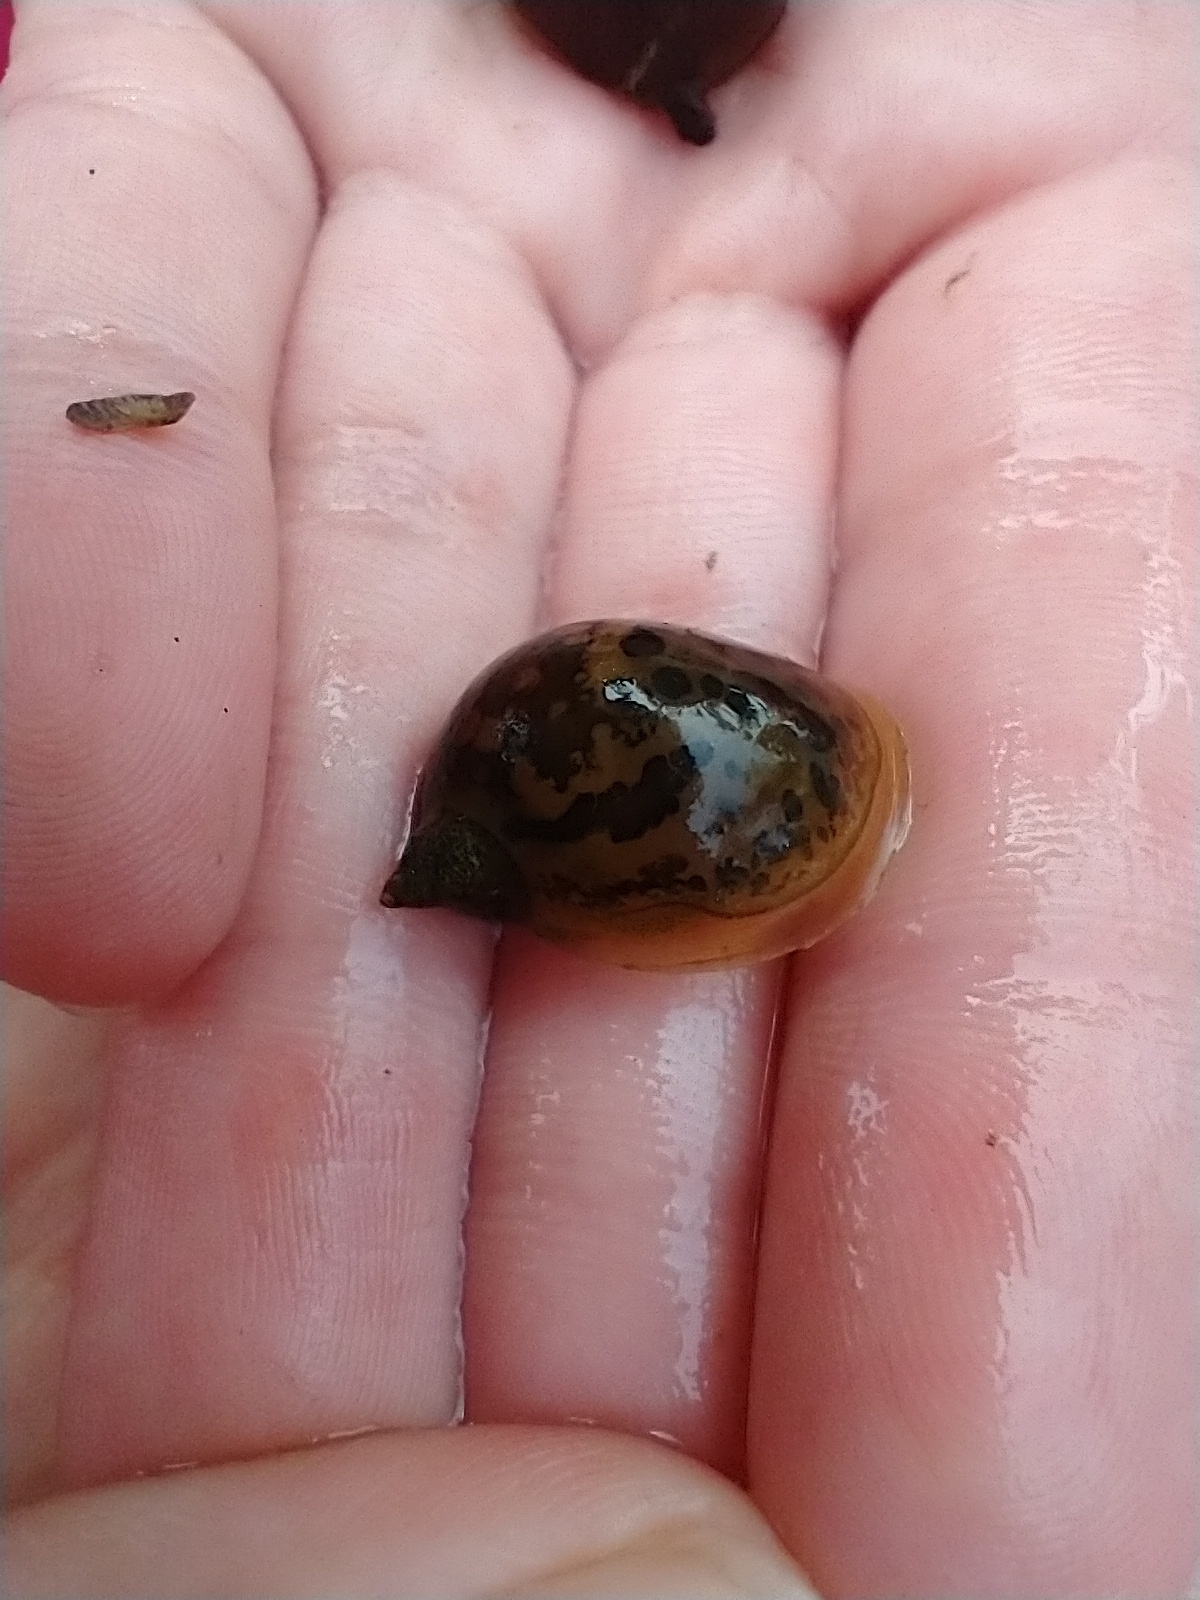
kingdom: Animalia
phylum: Mollusca
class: Gastropoda
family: Lymnaeidae
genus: Radix
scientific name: Radix auricularia
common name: Ear pond snail
